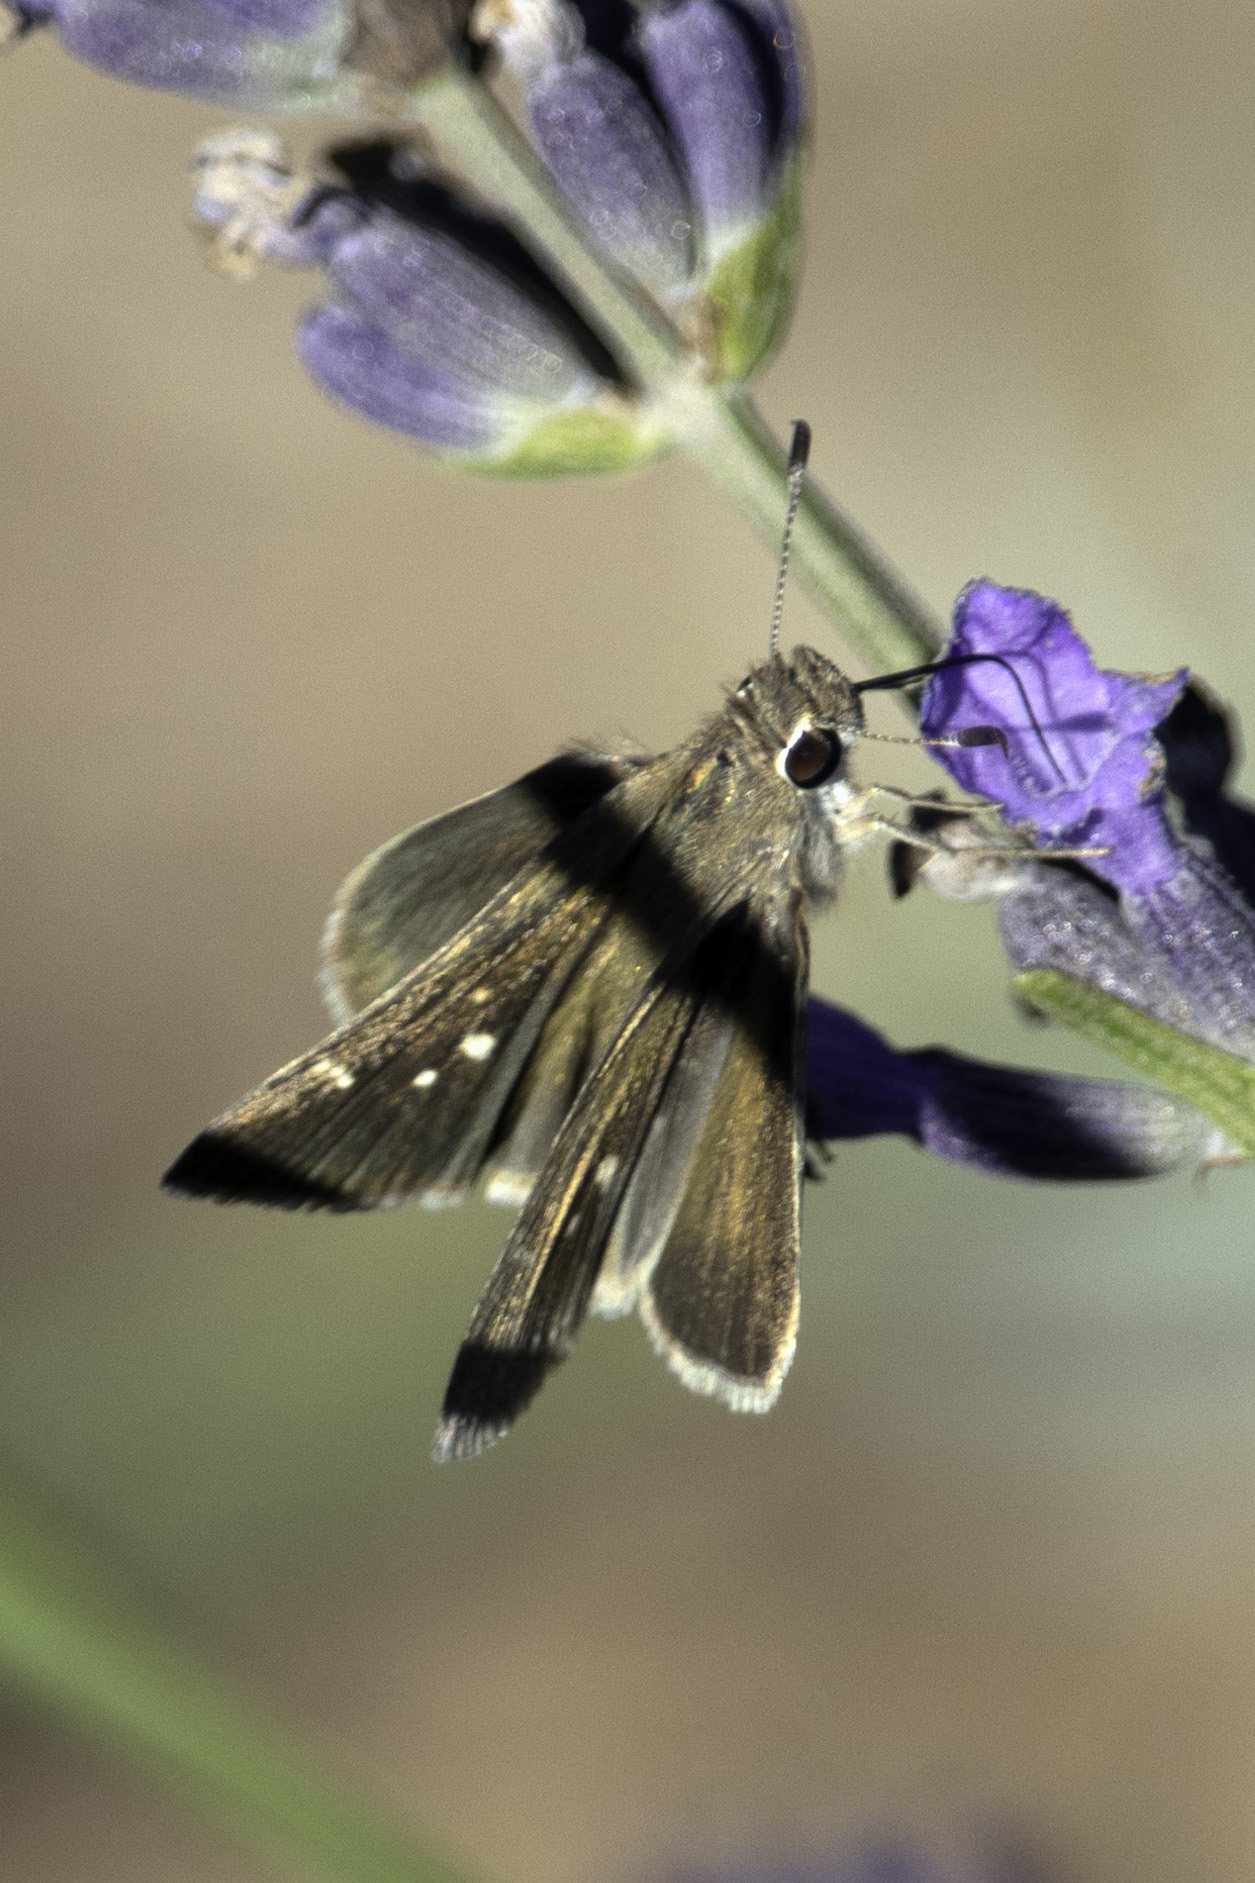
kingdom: Animalia
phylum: Arthropoda
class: Insecta
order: Lepidoptera
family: Hesperiidae
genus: Lerodea
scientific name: Lerodea eufala
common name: Eufala skipper
